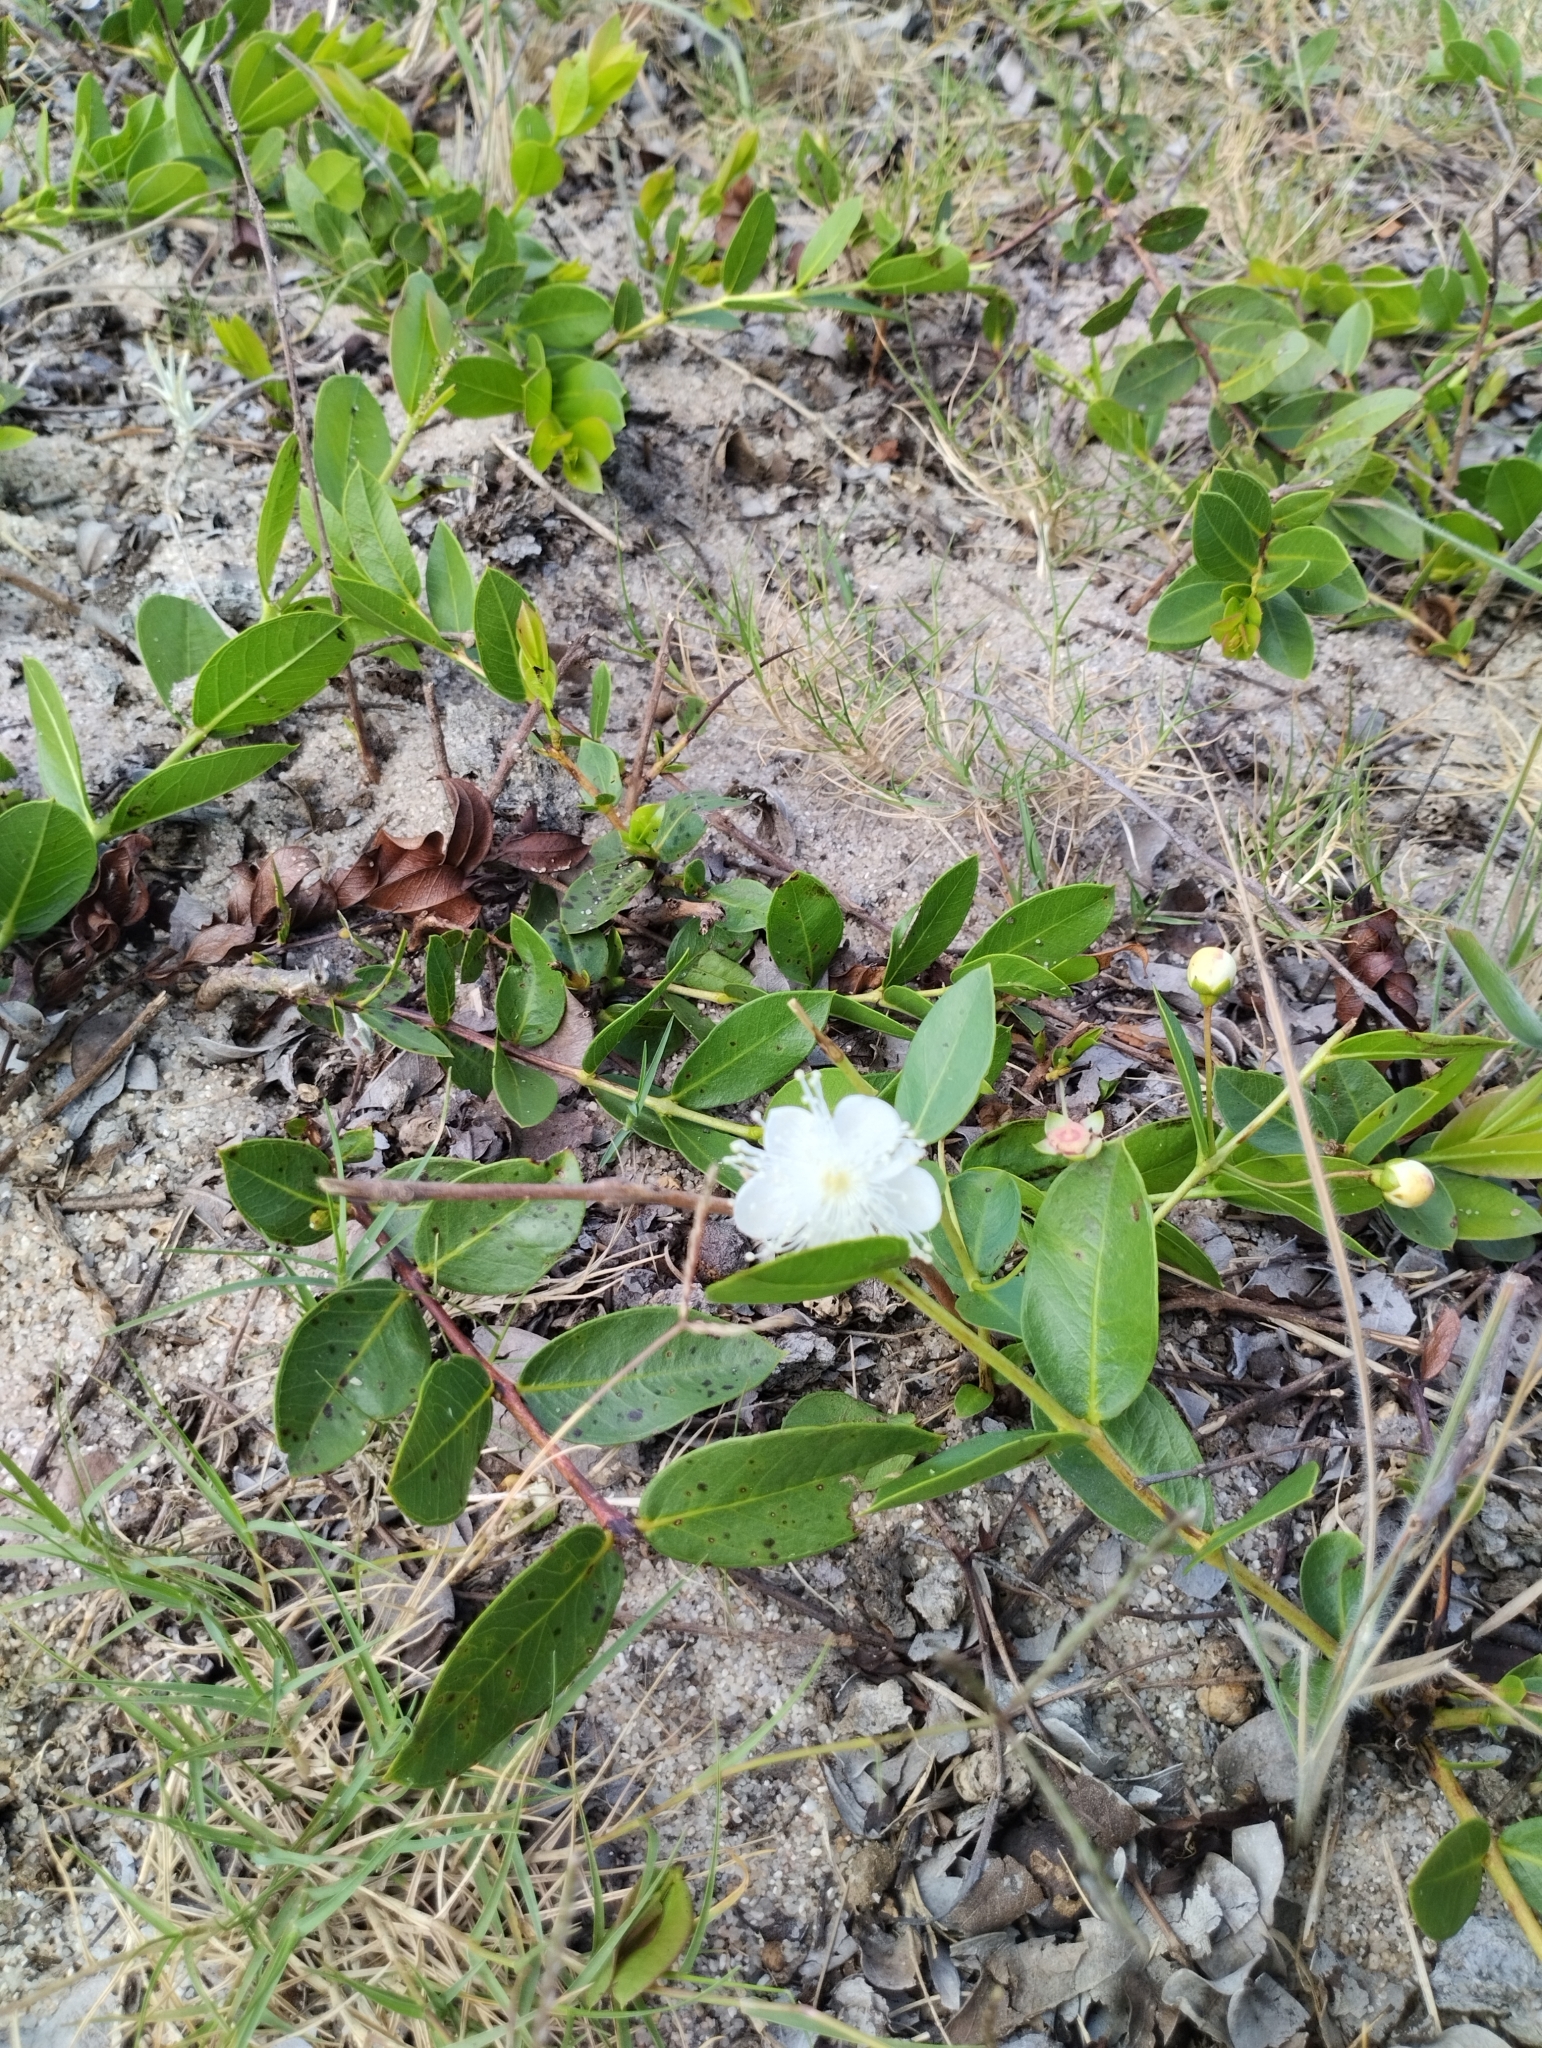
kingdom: Plantae
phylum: Tracheophyta
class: Magnoliopsida
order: Myrtales
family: Myrtaceae
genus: Psidium
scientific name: Psidium salutare
